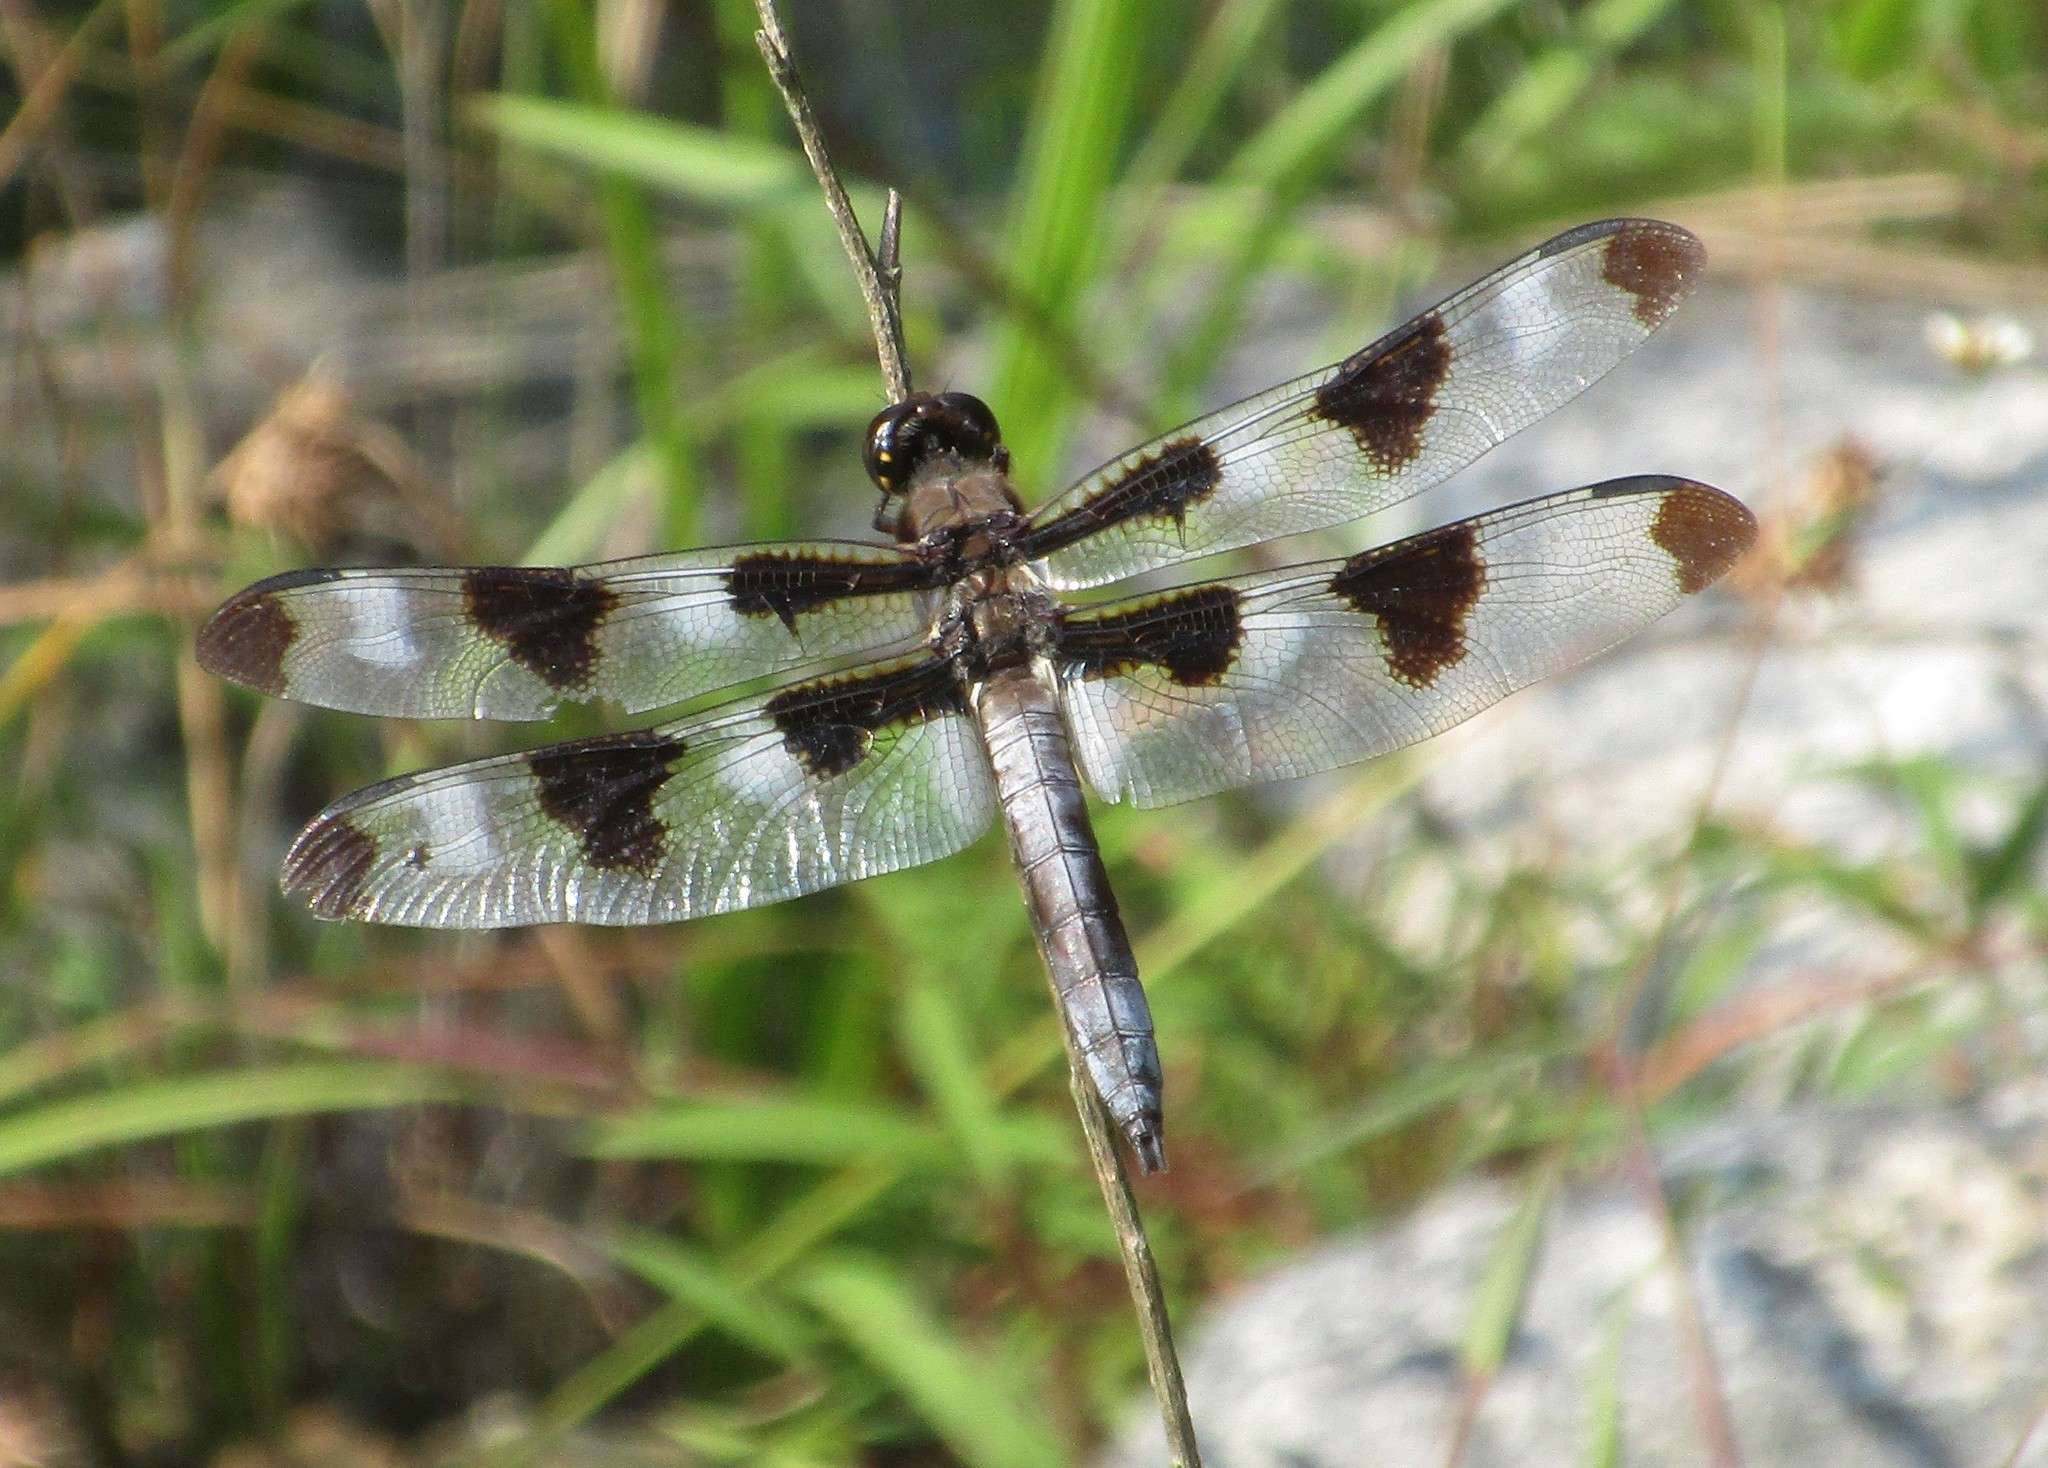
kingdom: Animalia
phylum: Arthropoda
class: Insecta
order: Odonata
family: Libellulidae
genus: Libellula
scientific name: Libellula pulchella
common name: Twelve-spotted skimmer
